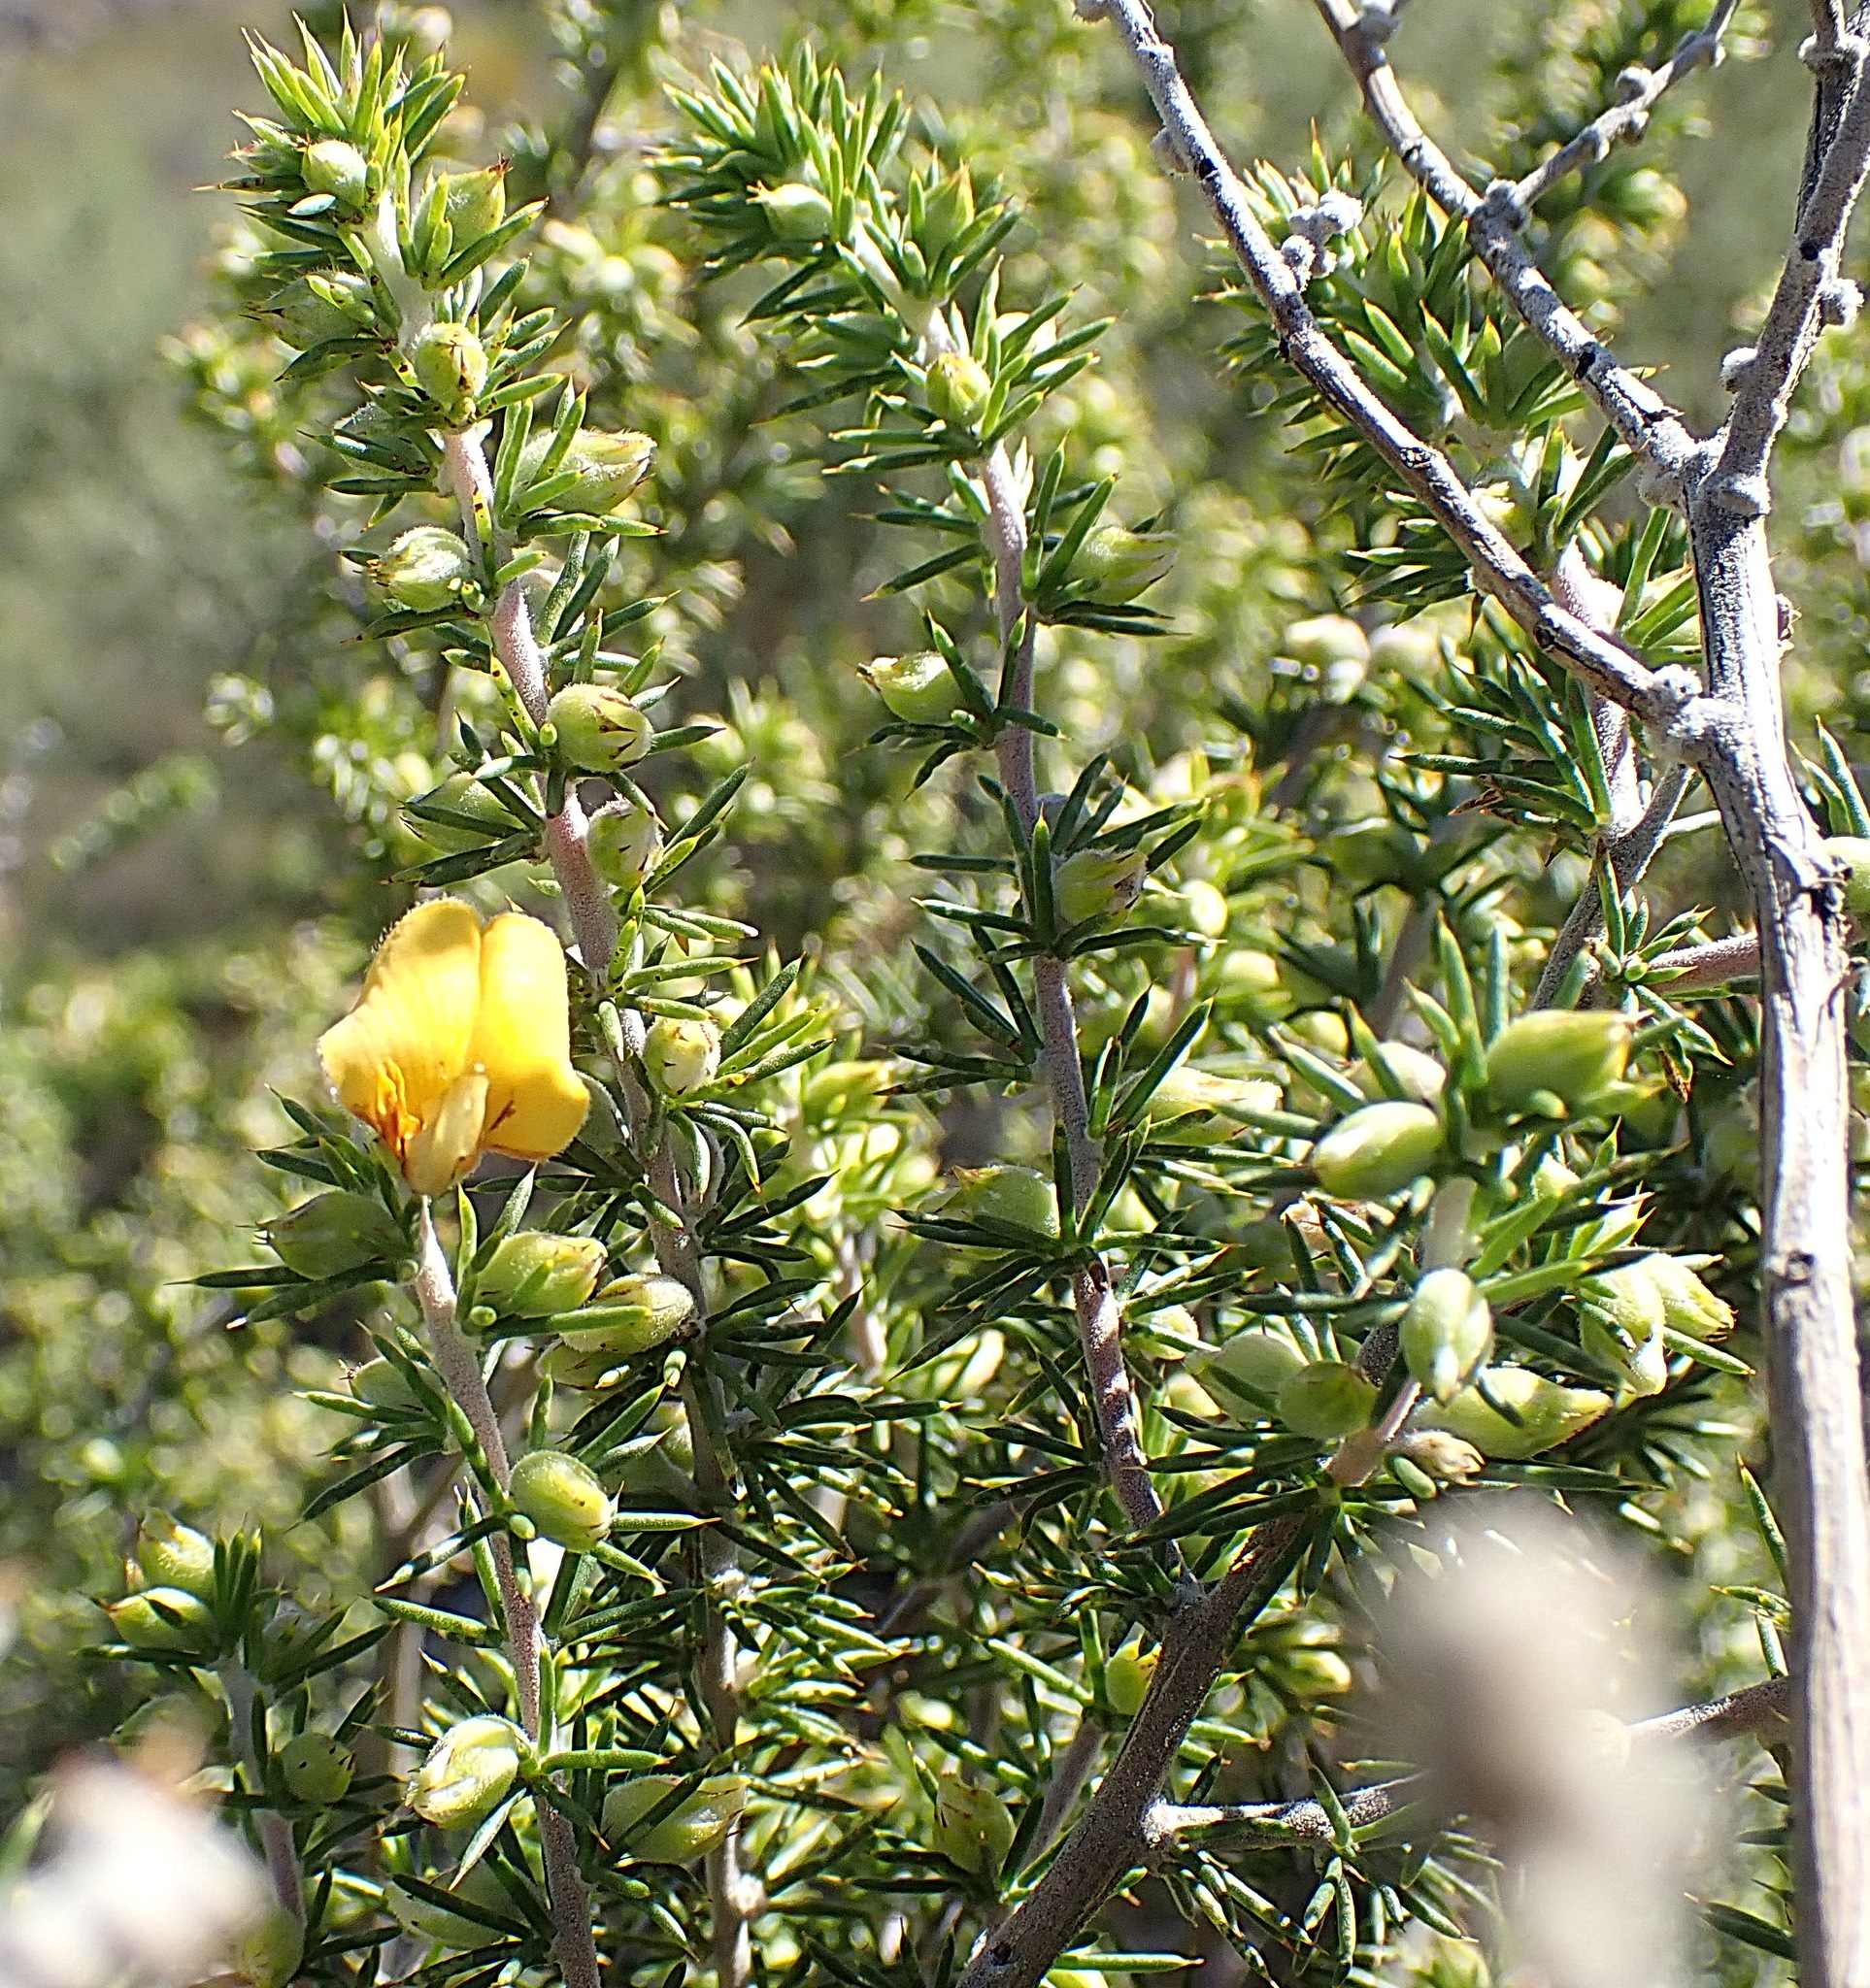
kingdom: Plantae
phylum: Tracheophyta
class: Magnoliopsida
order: Fabales
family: Fabaceae
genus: Aspalathus
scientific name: Aspalathus hirta
